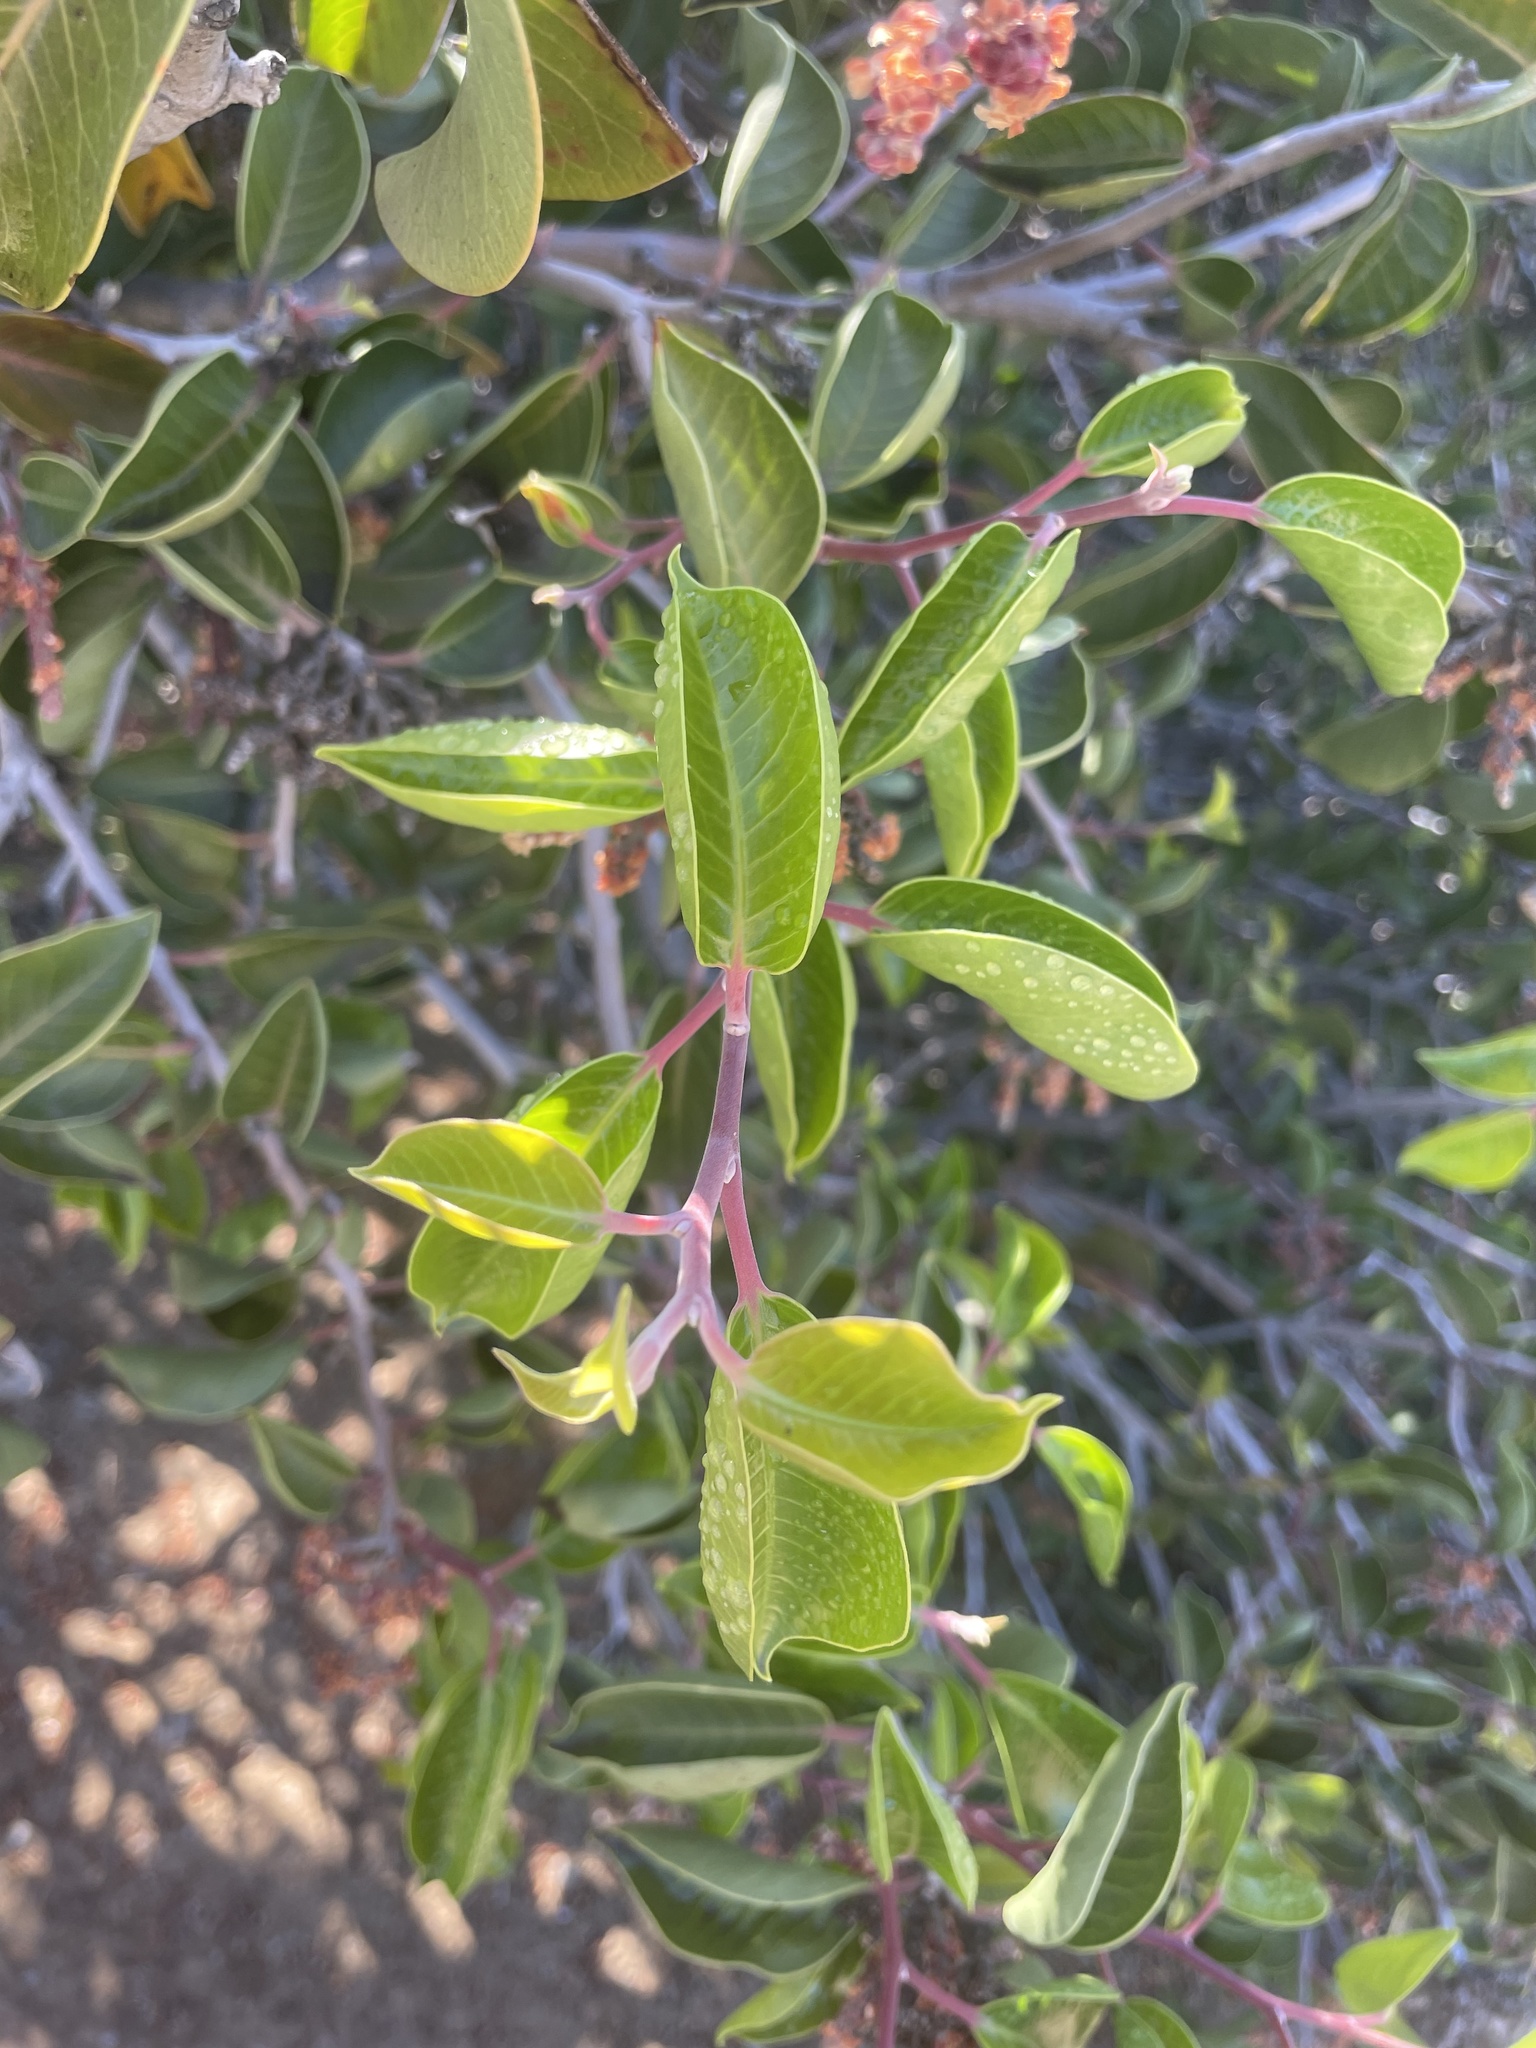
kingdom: Plantae
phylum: Tracheophyta
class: Magnoliopsida
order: Sapindales
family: Anacardiaceae
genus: Rhus
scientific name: Rhus ovata
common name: Sugar sumac
